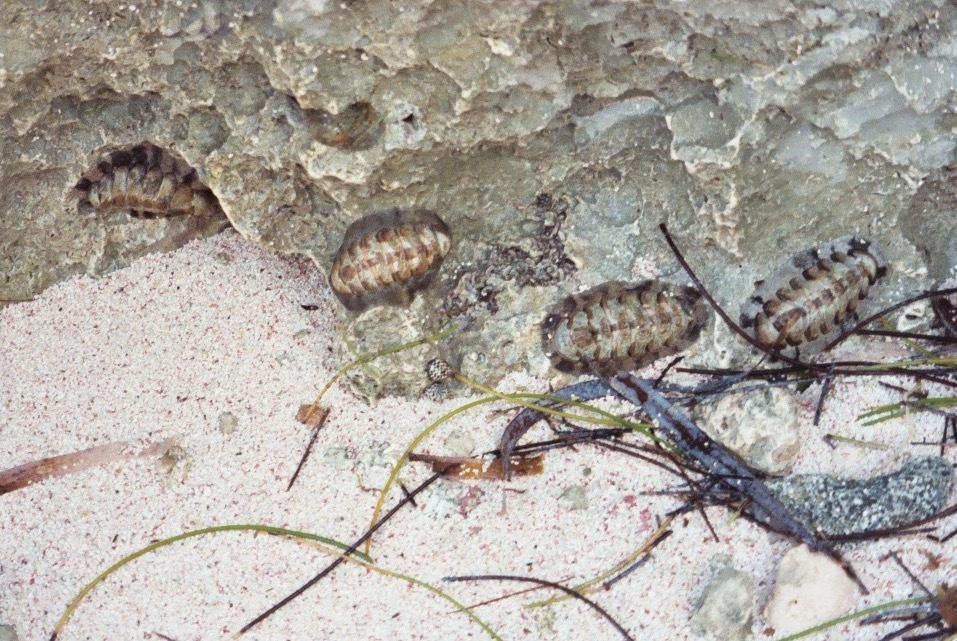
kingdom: Animalia
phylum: Mollusca
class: Polyplacophora
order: Chitonida
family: Chitonidae
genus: Acanthopleura
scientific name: Acanthopleura granulata
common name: West indian fuzzy chiton
